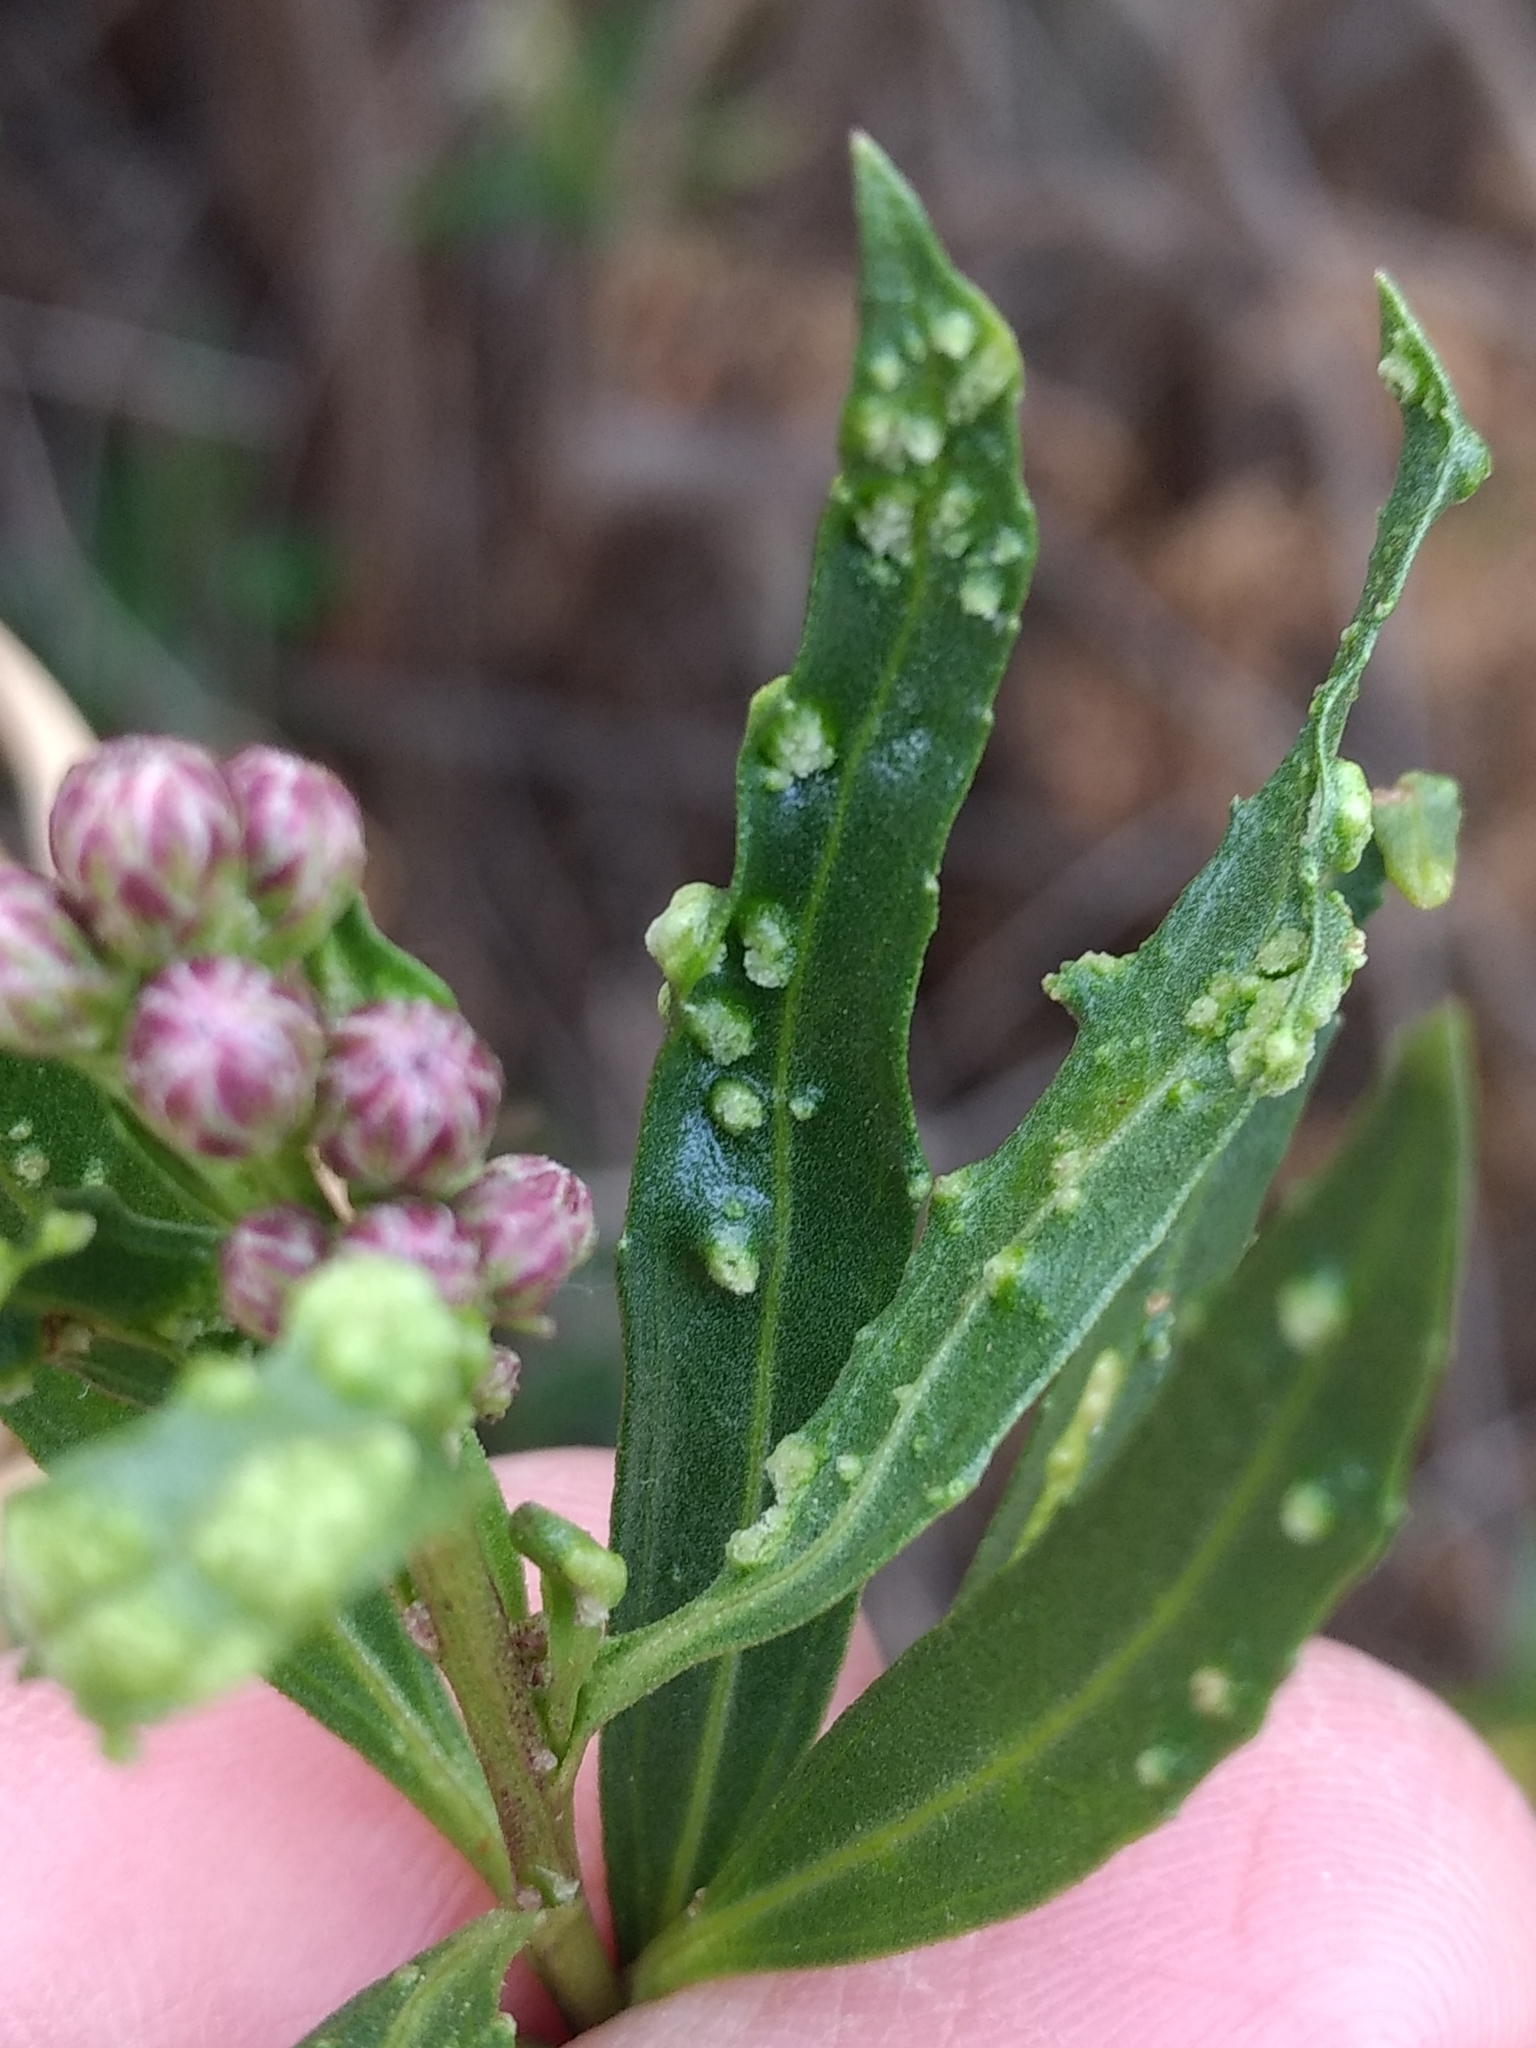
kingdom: Animalia
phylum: Arthropoda
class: Arachnida
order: Trombidiformes
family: Eriophyidae
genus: Aceria
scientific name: Aceria
